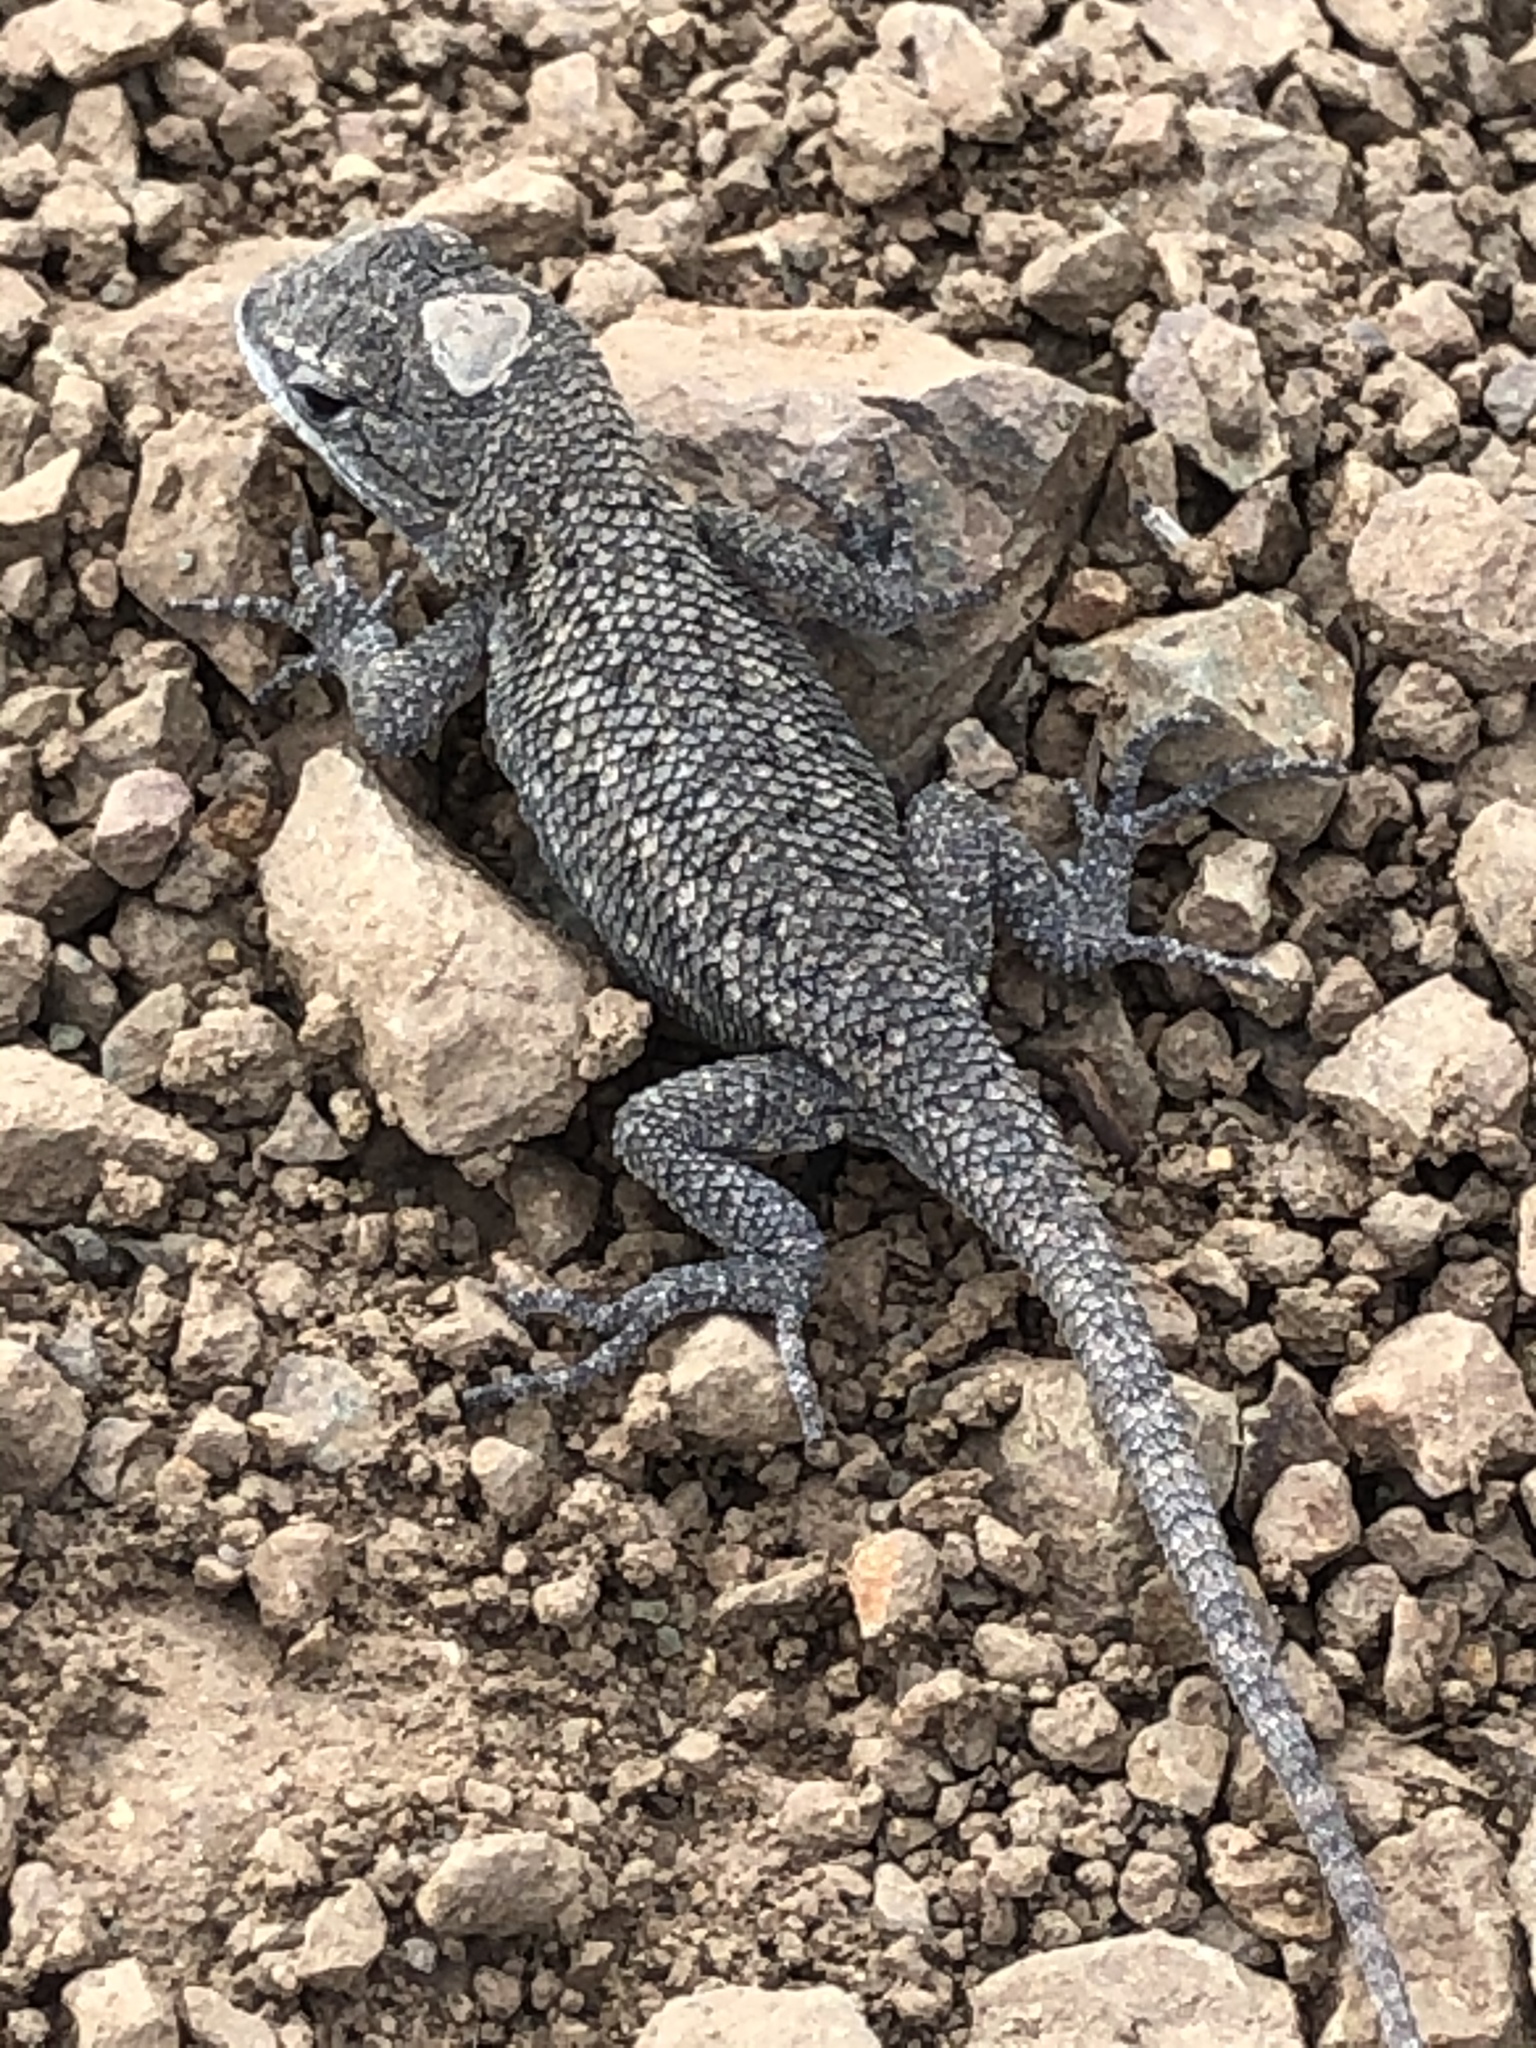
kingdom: Animalia
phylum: Chordata
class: Squamata
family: Phrynosomatidae
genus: Sceloporus
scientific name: Sceloporus occidentalis
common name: Western fence lizard
